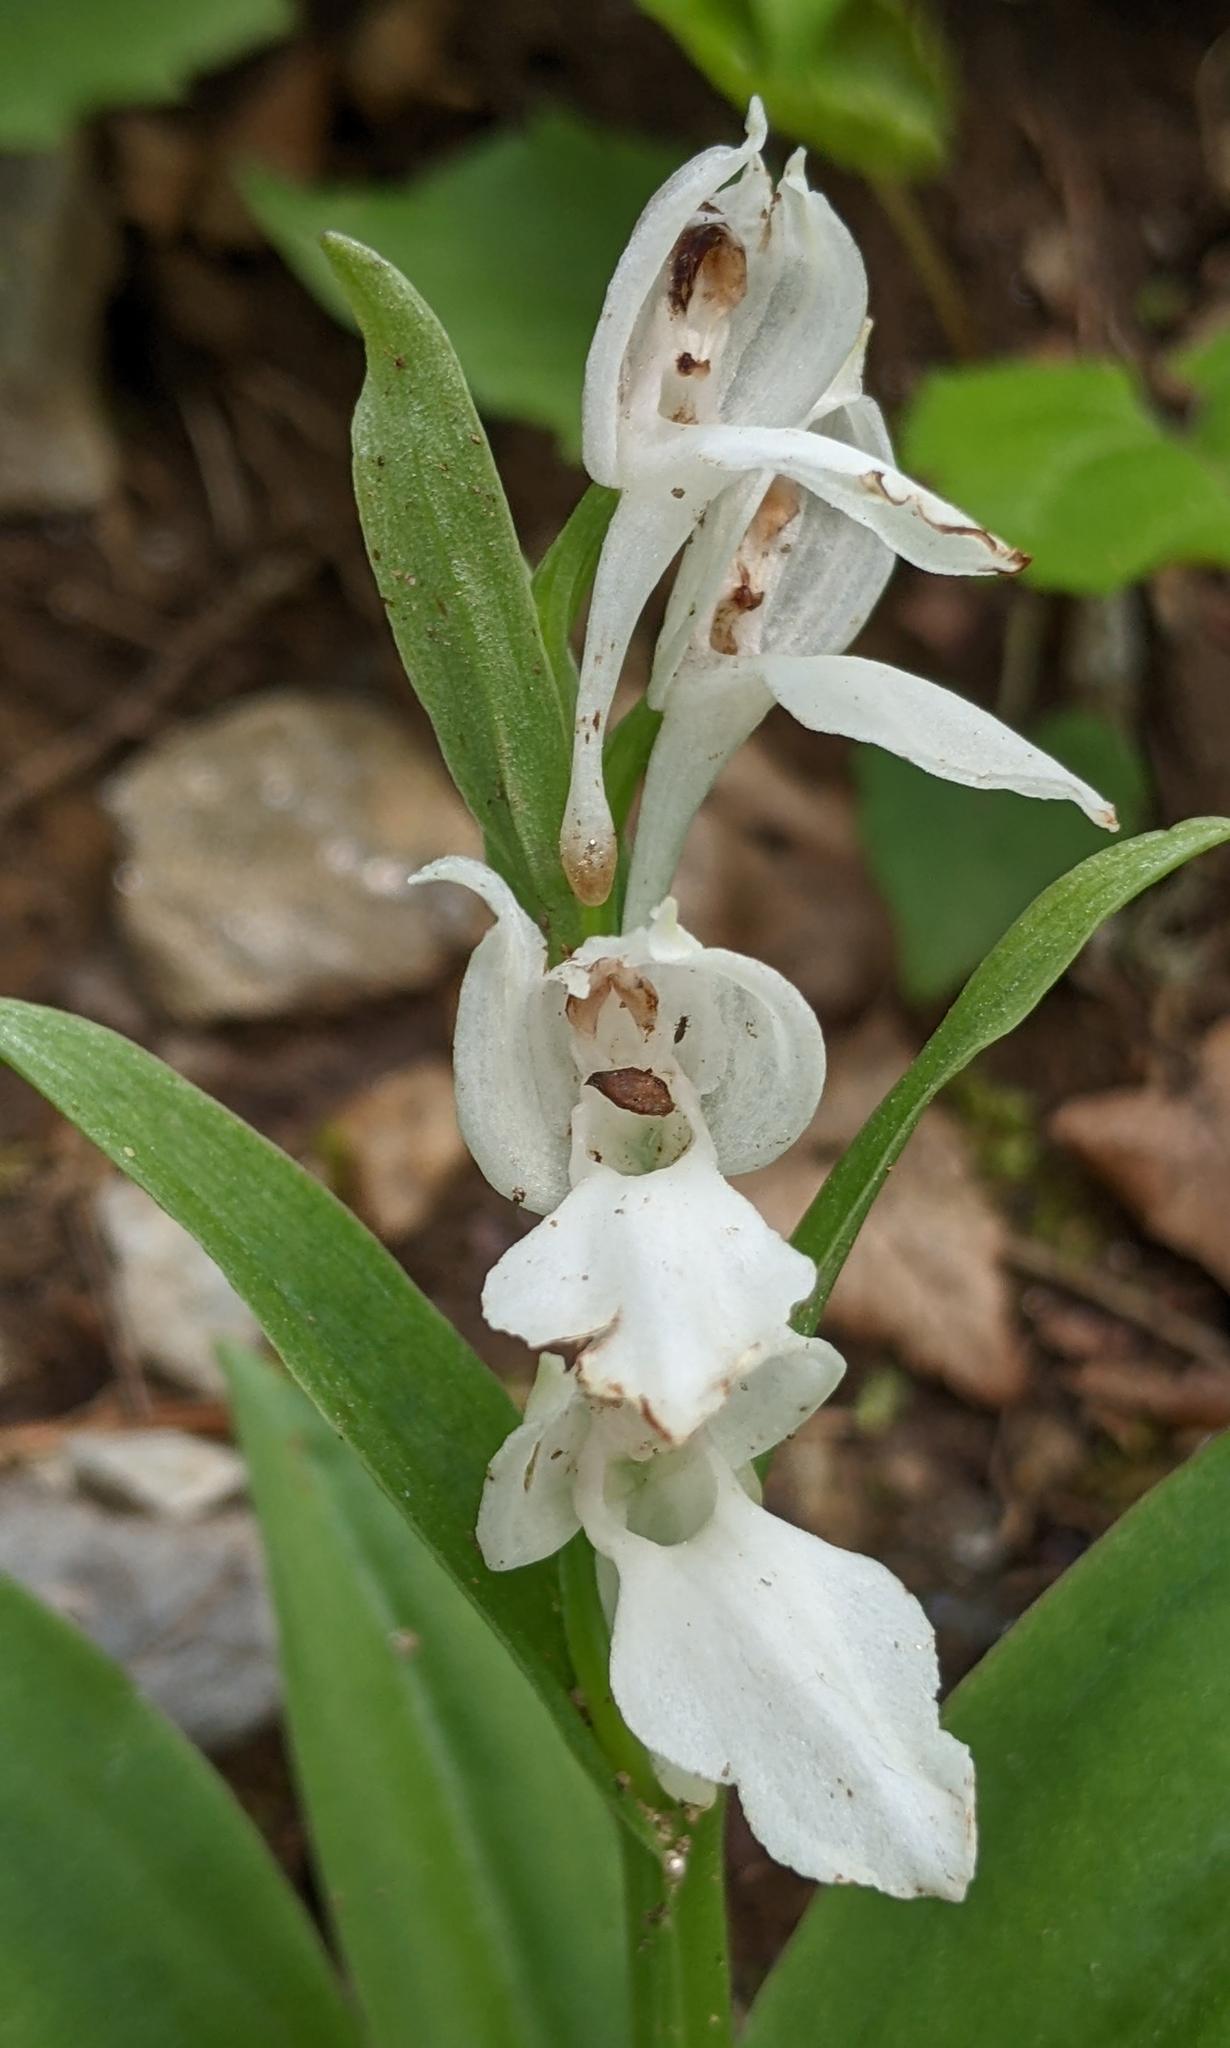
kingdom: Plantae
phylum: Tracheophyta
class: Liliopsida
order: Asparagales
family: Orchidaceae
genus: Galearis
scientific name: Galearis spectabilis
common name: Purple-hooded orchis
